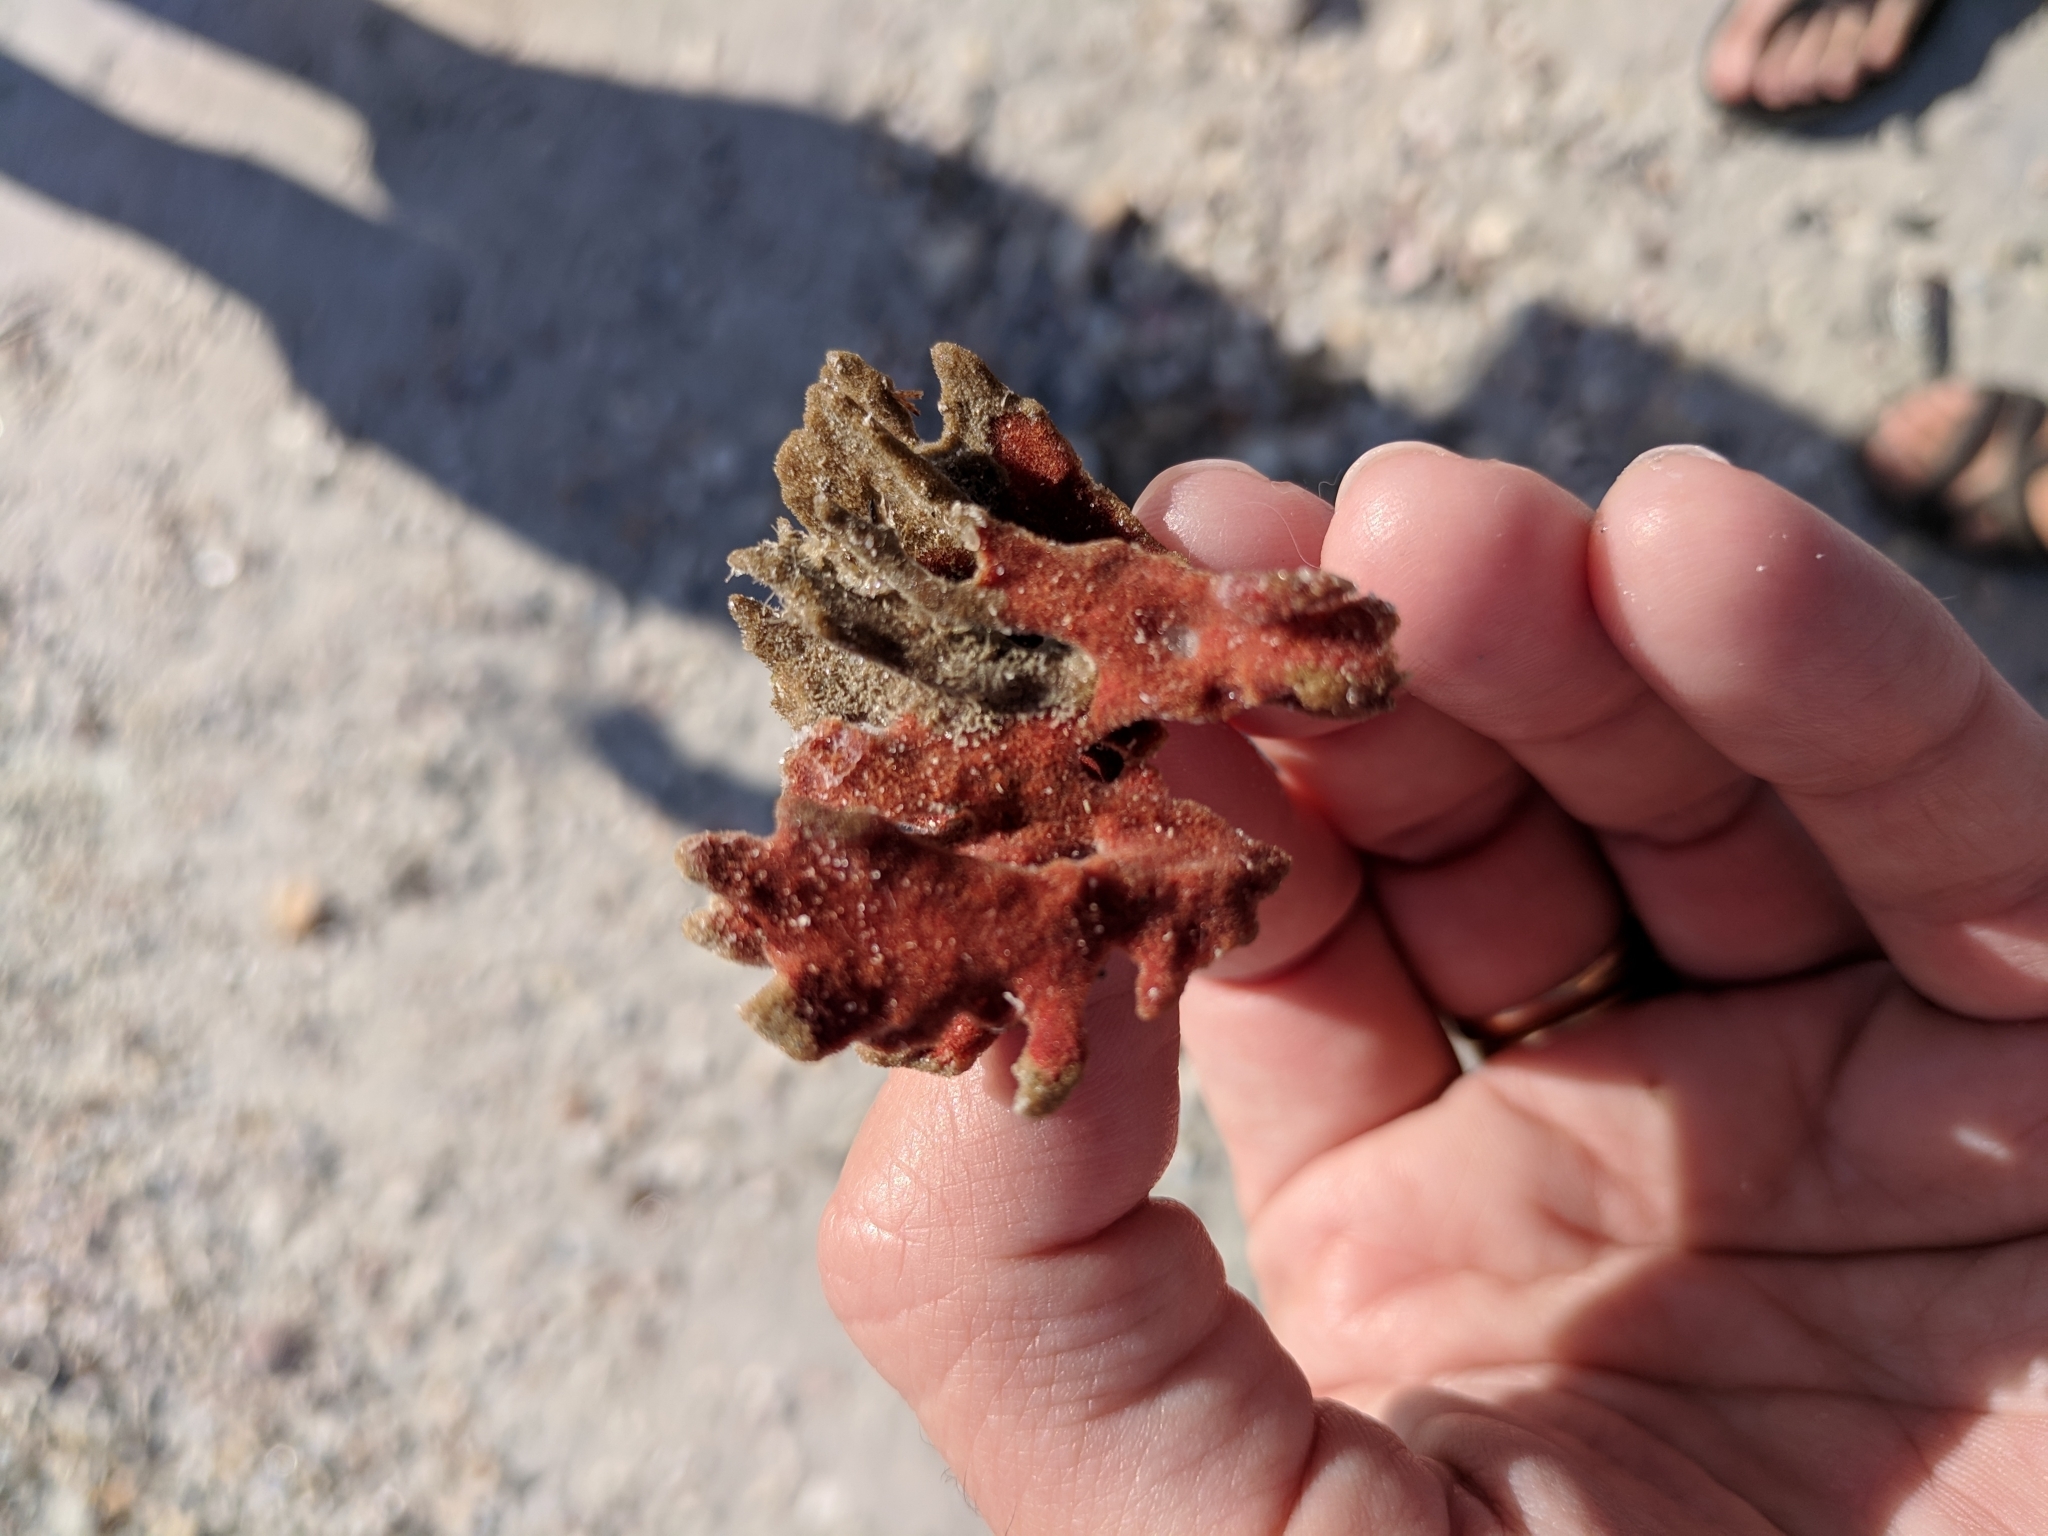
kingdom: Animalia
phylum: Porifera
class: Demospongiae
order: Poecilosclerida
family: Microcionidae
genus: Clathria
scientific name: Clathria foliacea
